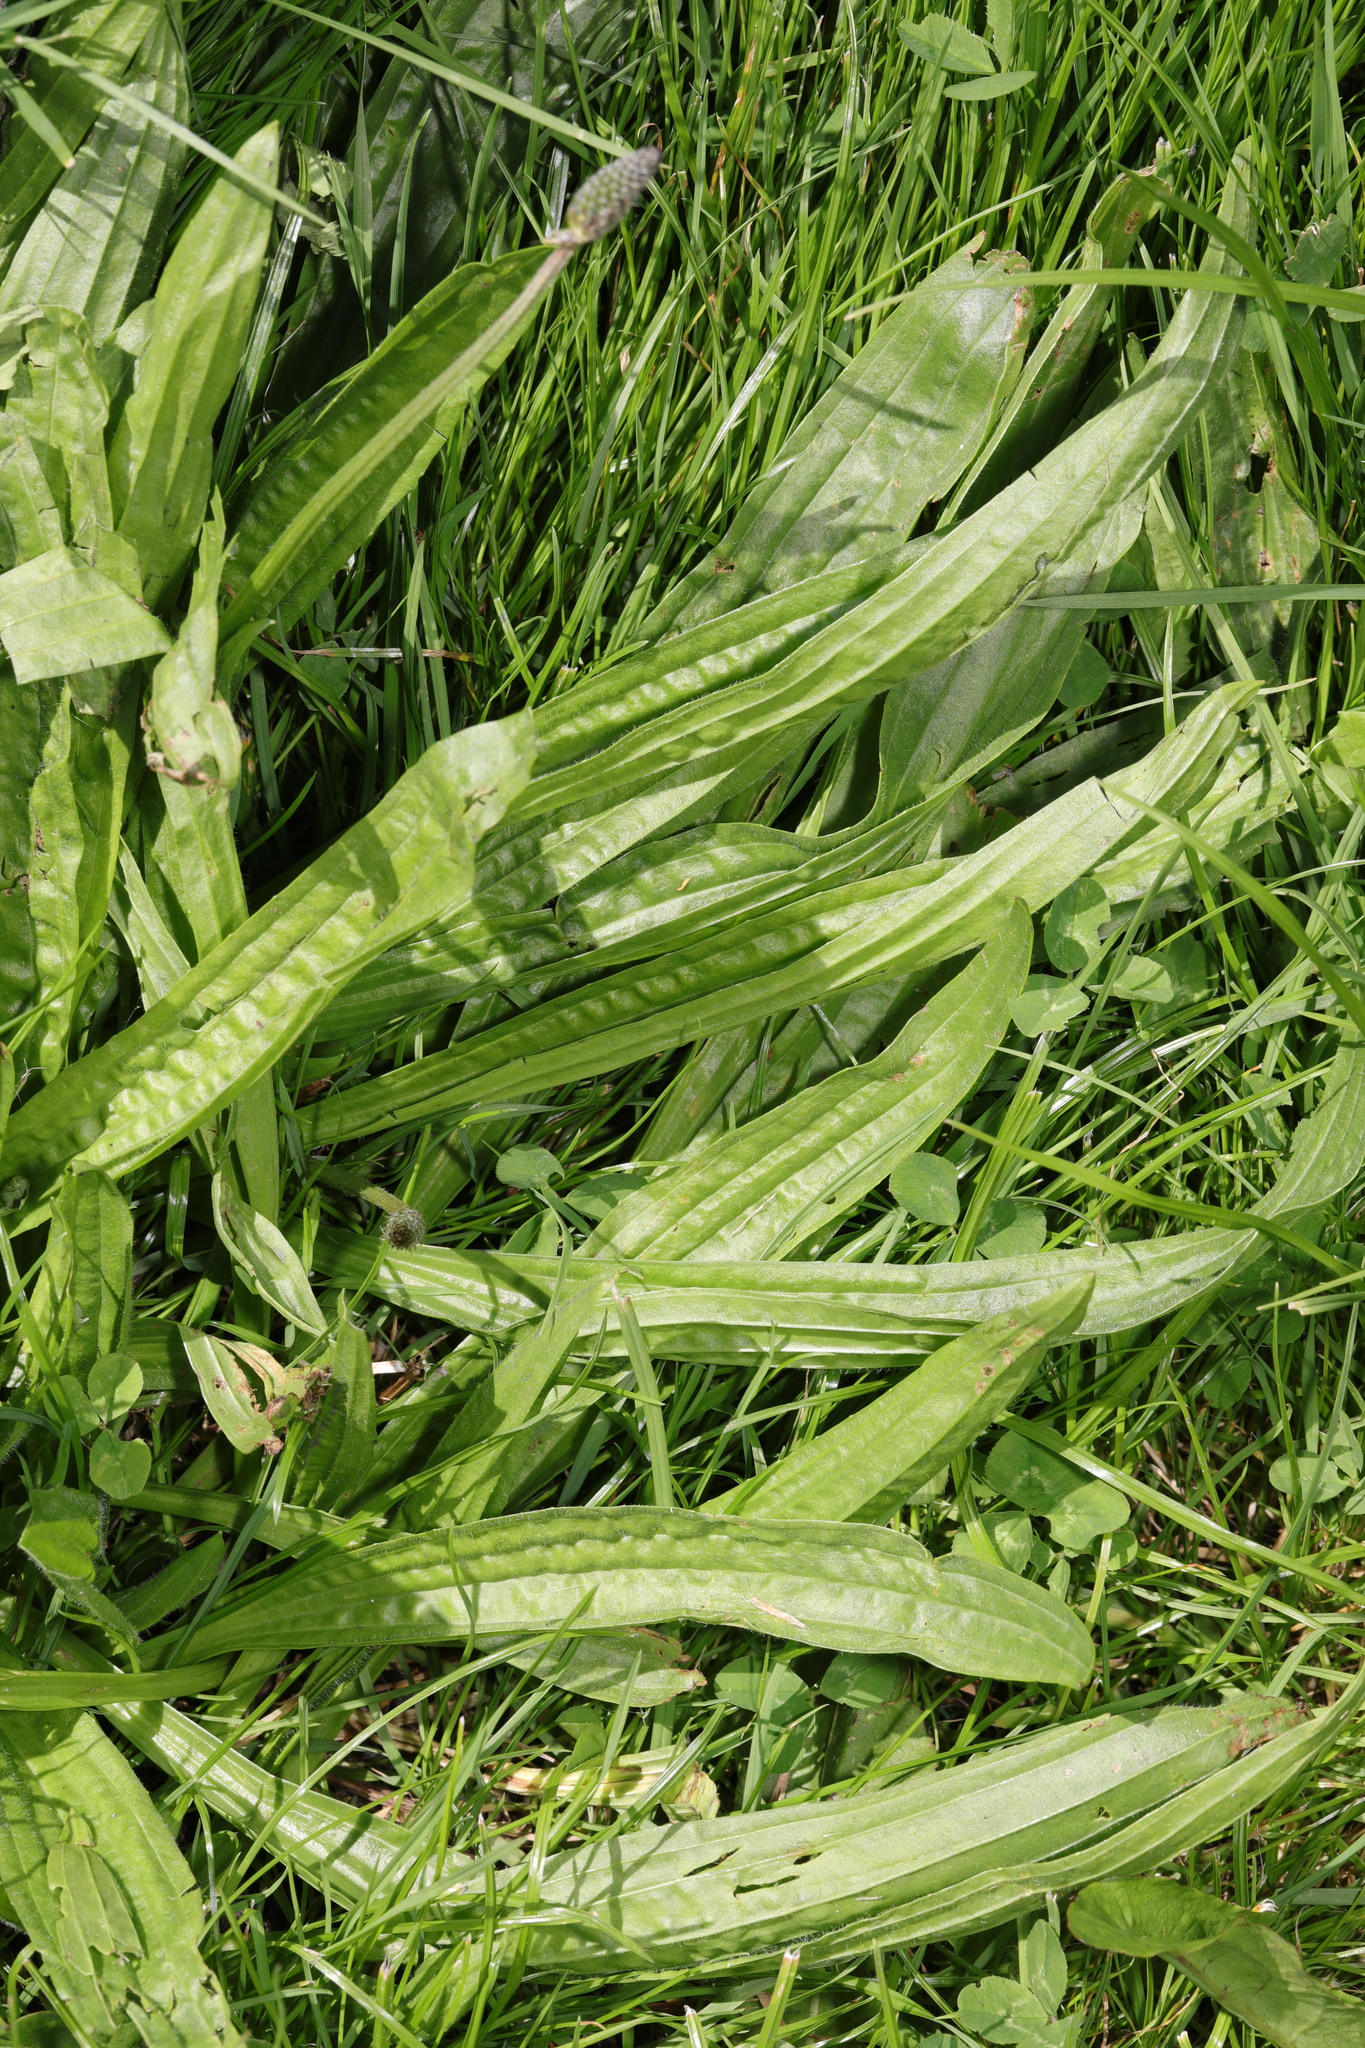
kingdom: Plantae
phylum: Tracheophyta
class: Magnoliopsida
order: Lamiales
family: Plantaginaceae
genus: Plantago
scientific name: Plantago lanceolata
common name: Ribwort plantain
